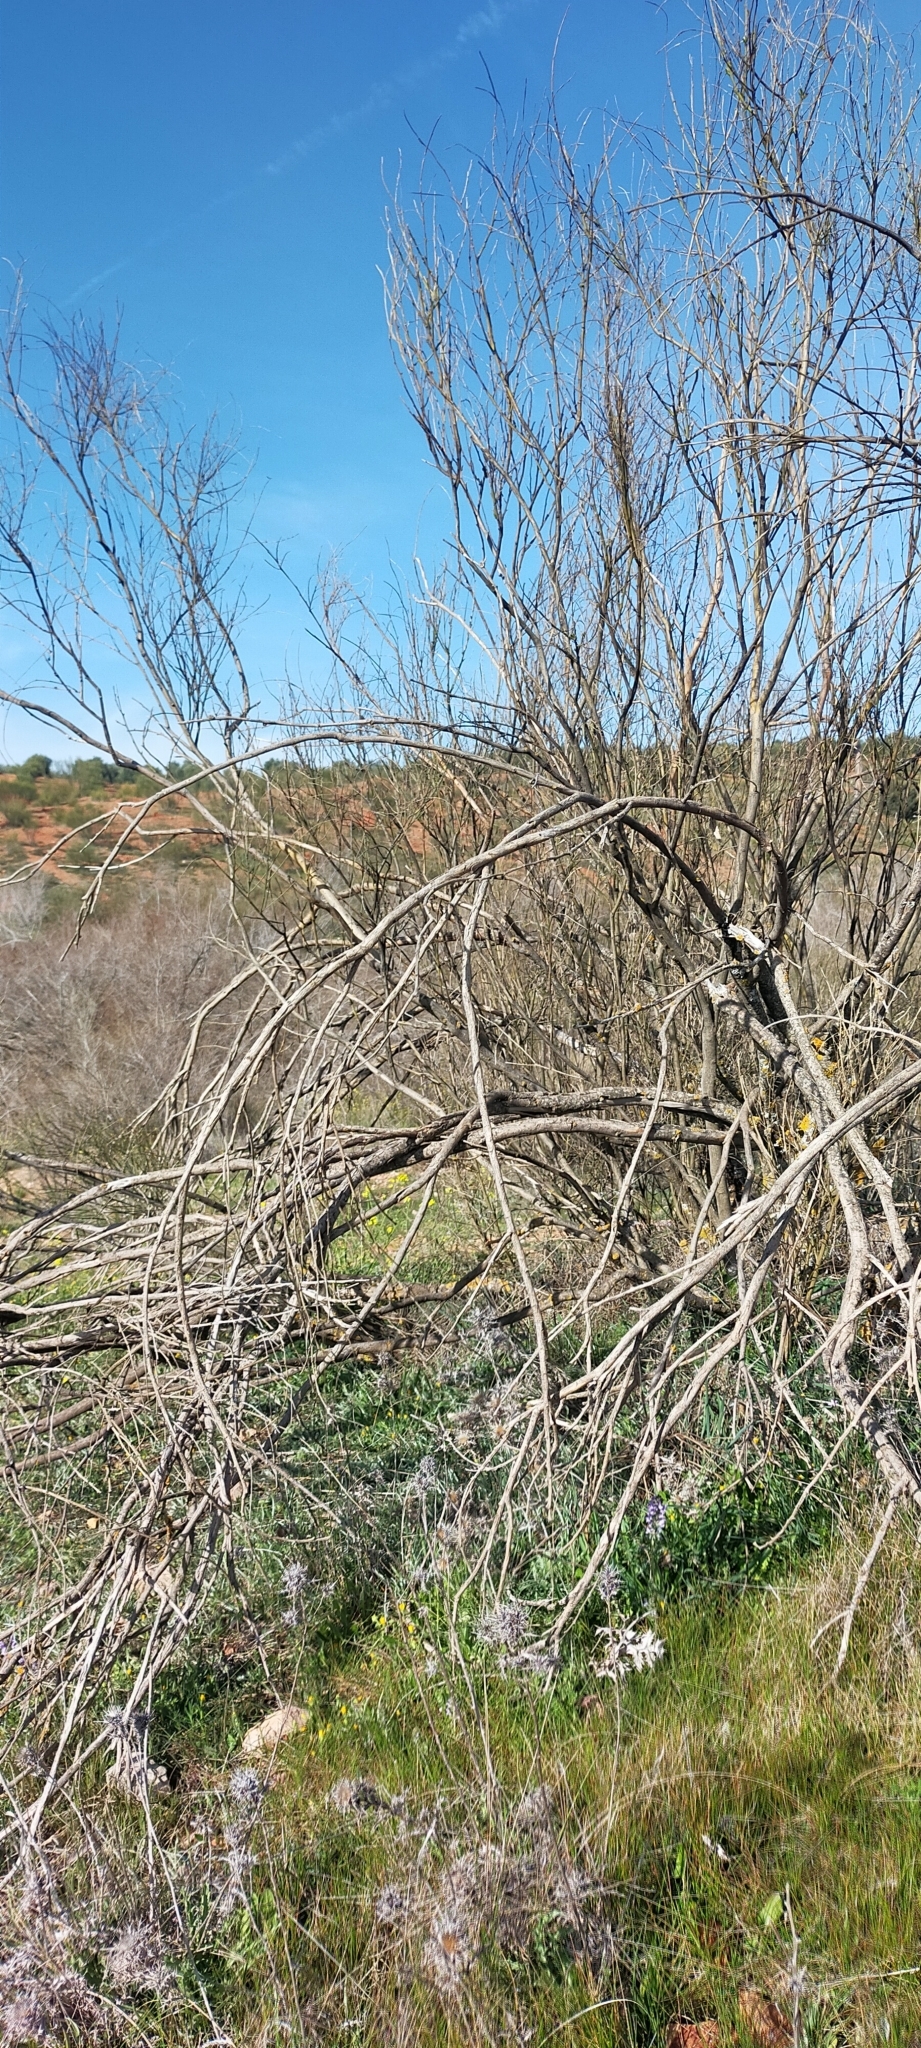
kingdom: Plantae
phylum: Tracheophyta
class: Magnoliopsida
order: Fabales
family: Fabaceae
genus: Retama
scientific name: Retama sphaerocarpa
